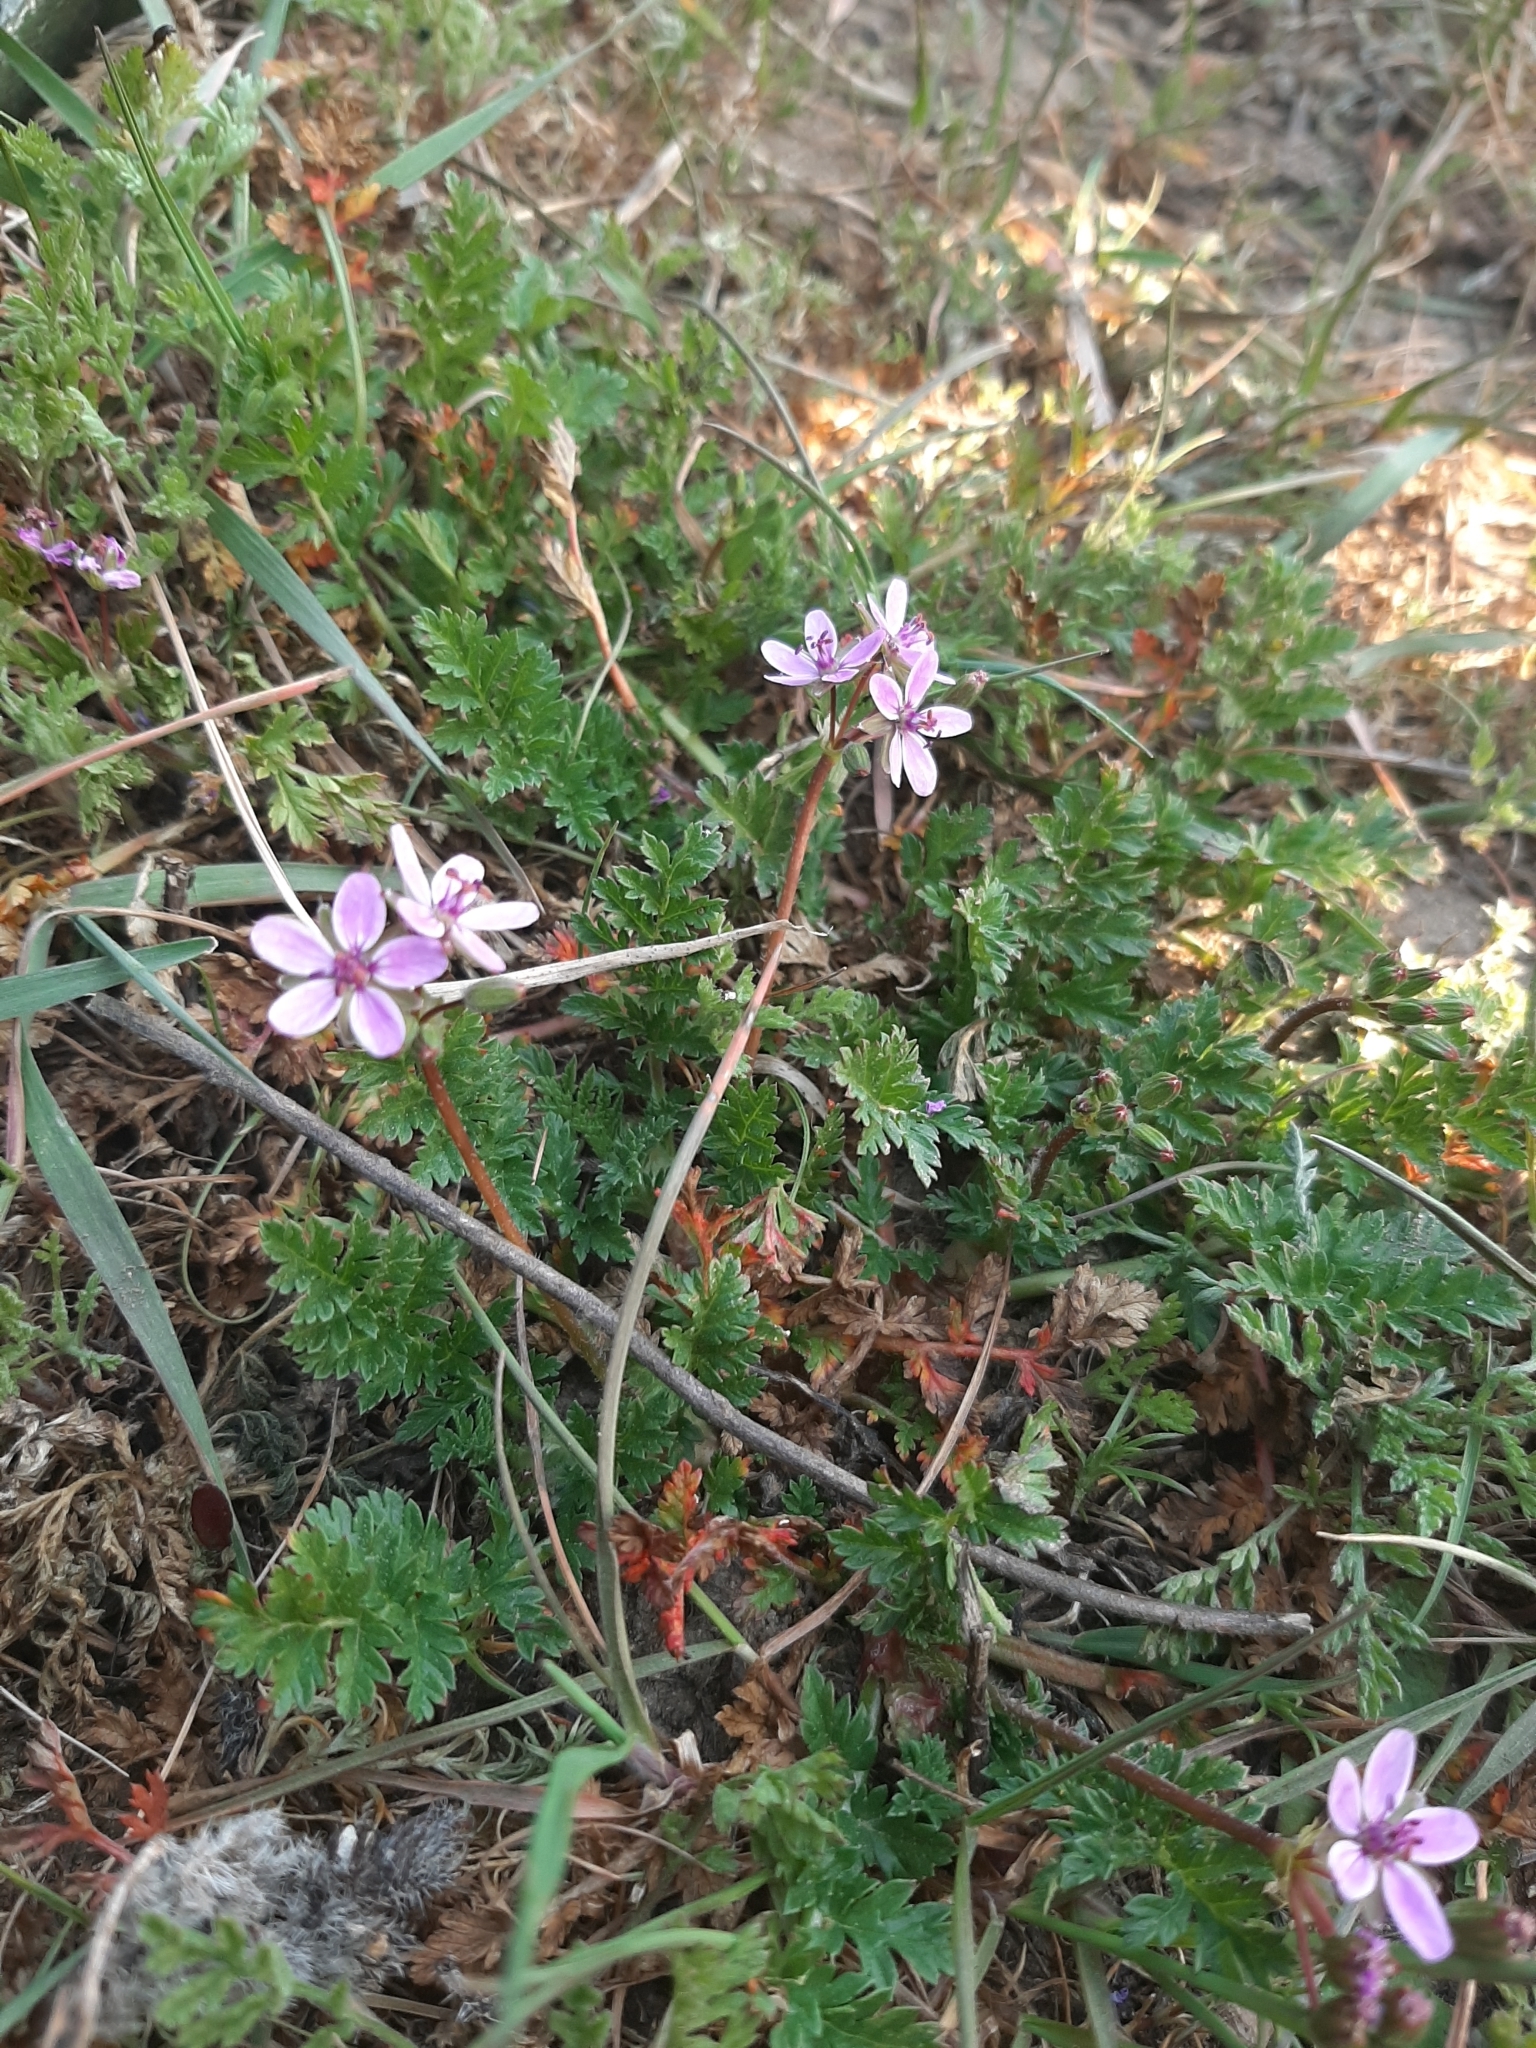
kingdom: Plantae
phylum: Tracheophyta
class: Magnoliopsida
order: Geraniales
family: Geraniaceae
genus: Erodium
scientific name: Erodium cicutarium
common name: Common stork's-bill
